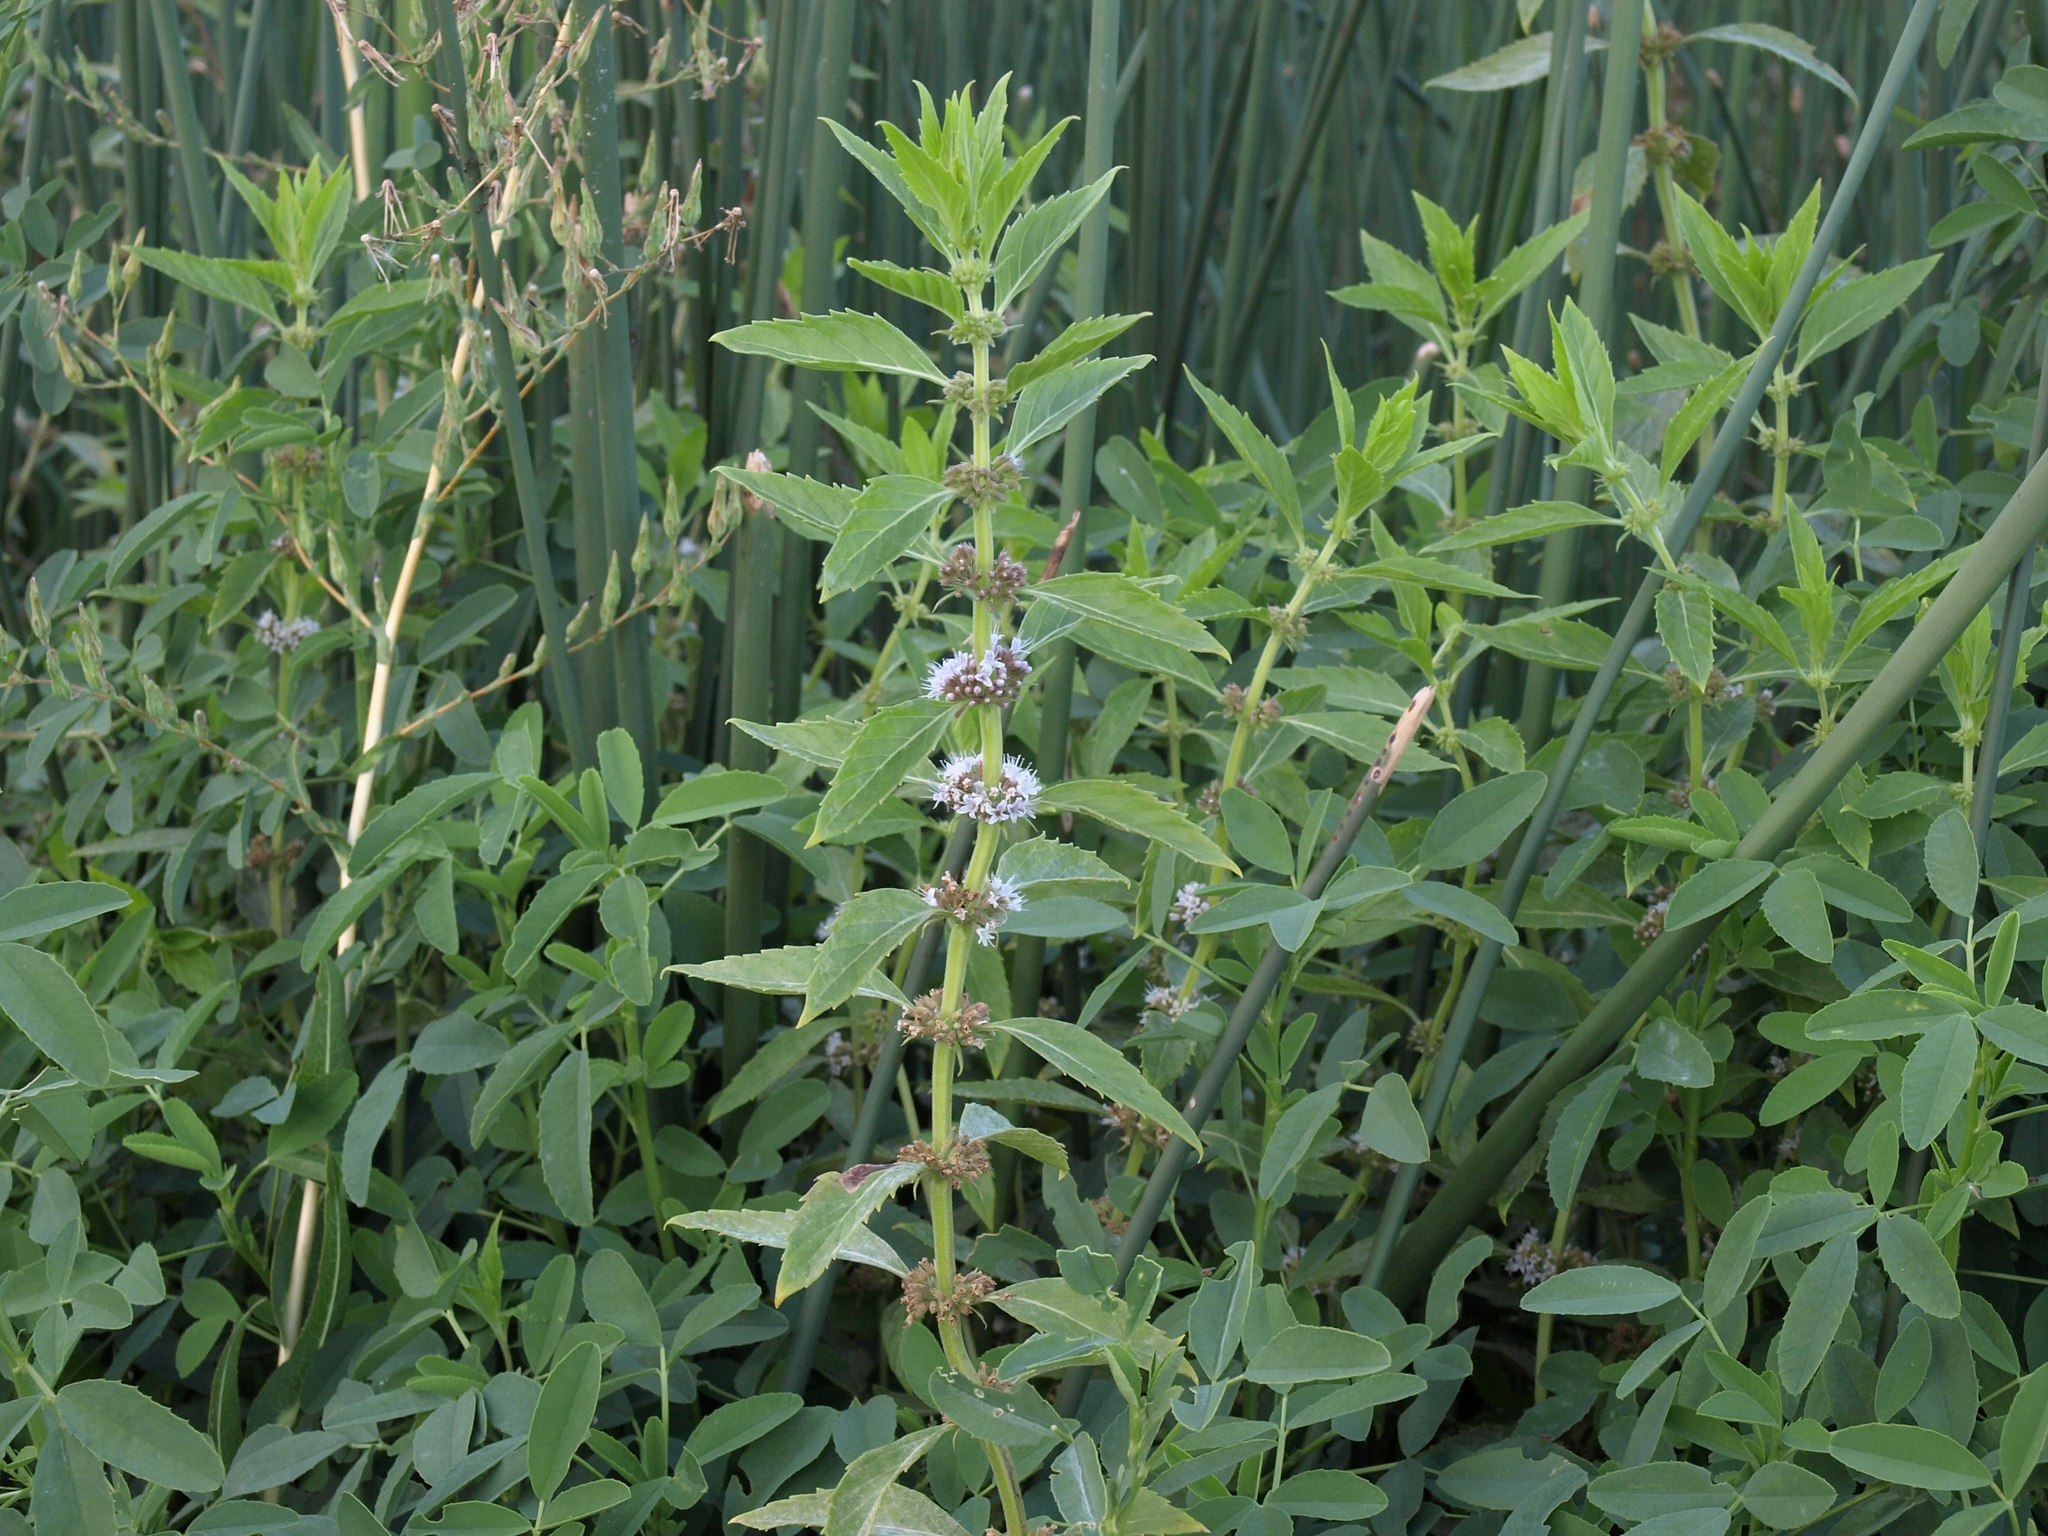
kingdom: Plantae
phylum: Tracheophyta
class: Magnoliopsida
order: Lamiales
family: Lamiaceae
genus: Mentha
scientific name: Mentha canadensis
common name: American corn mint
